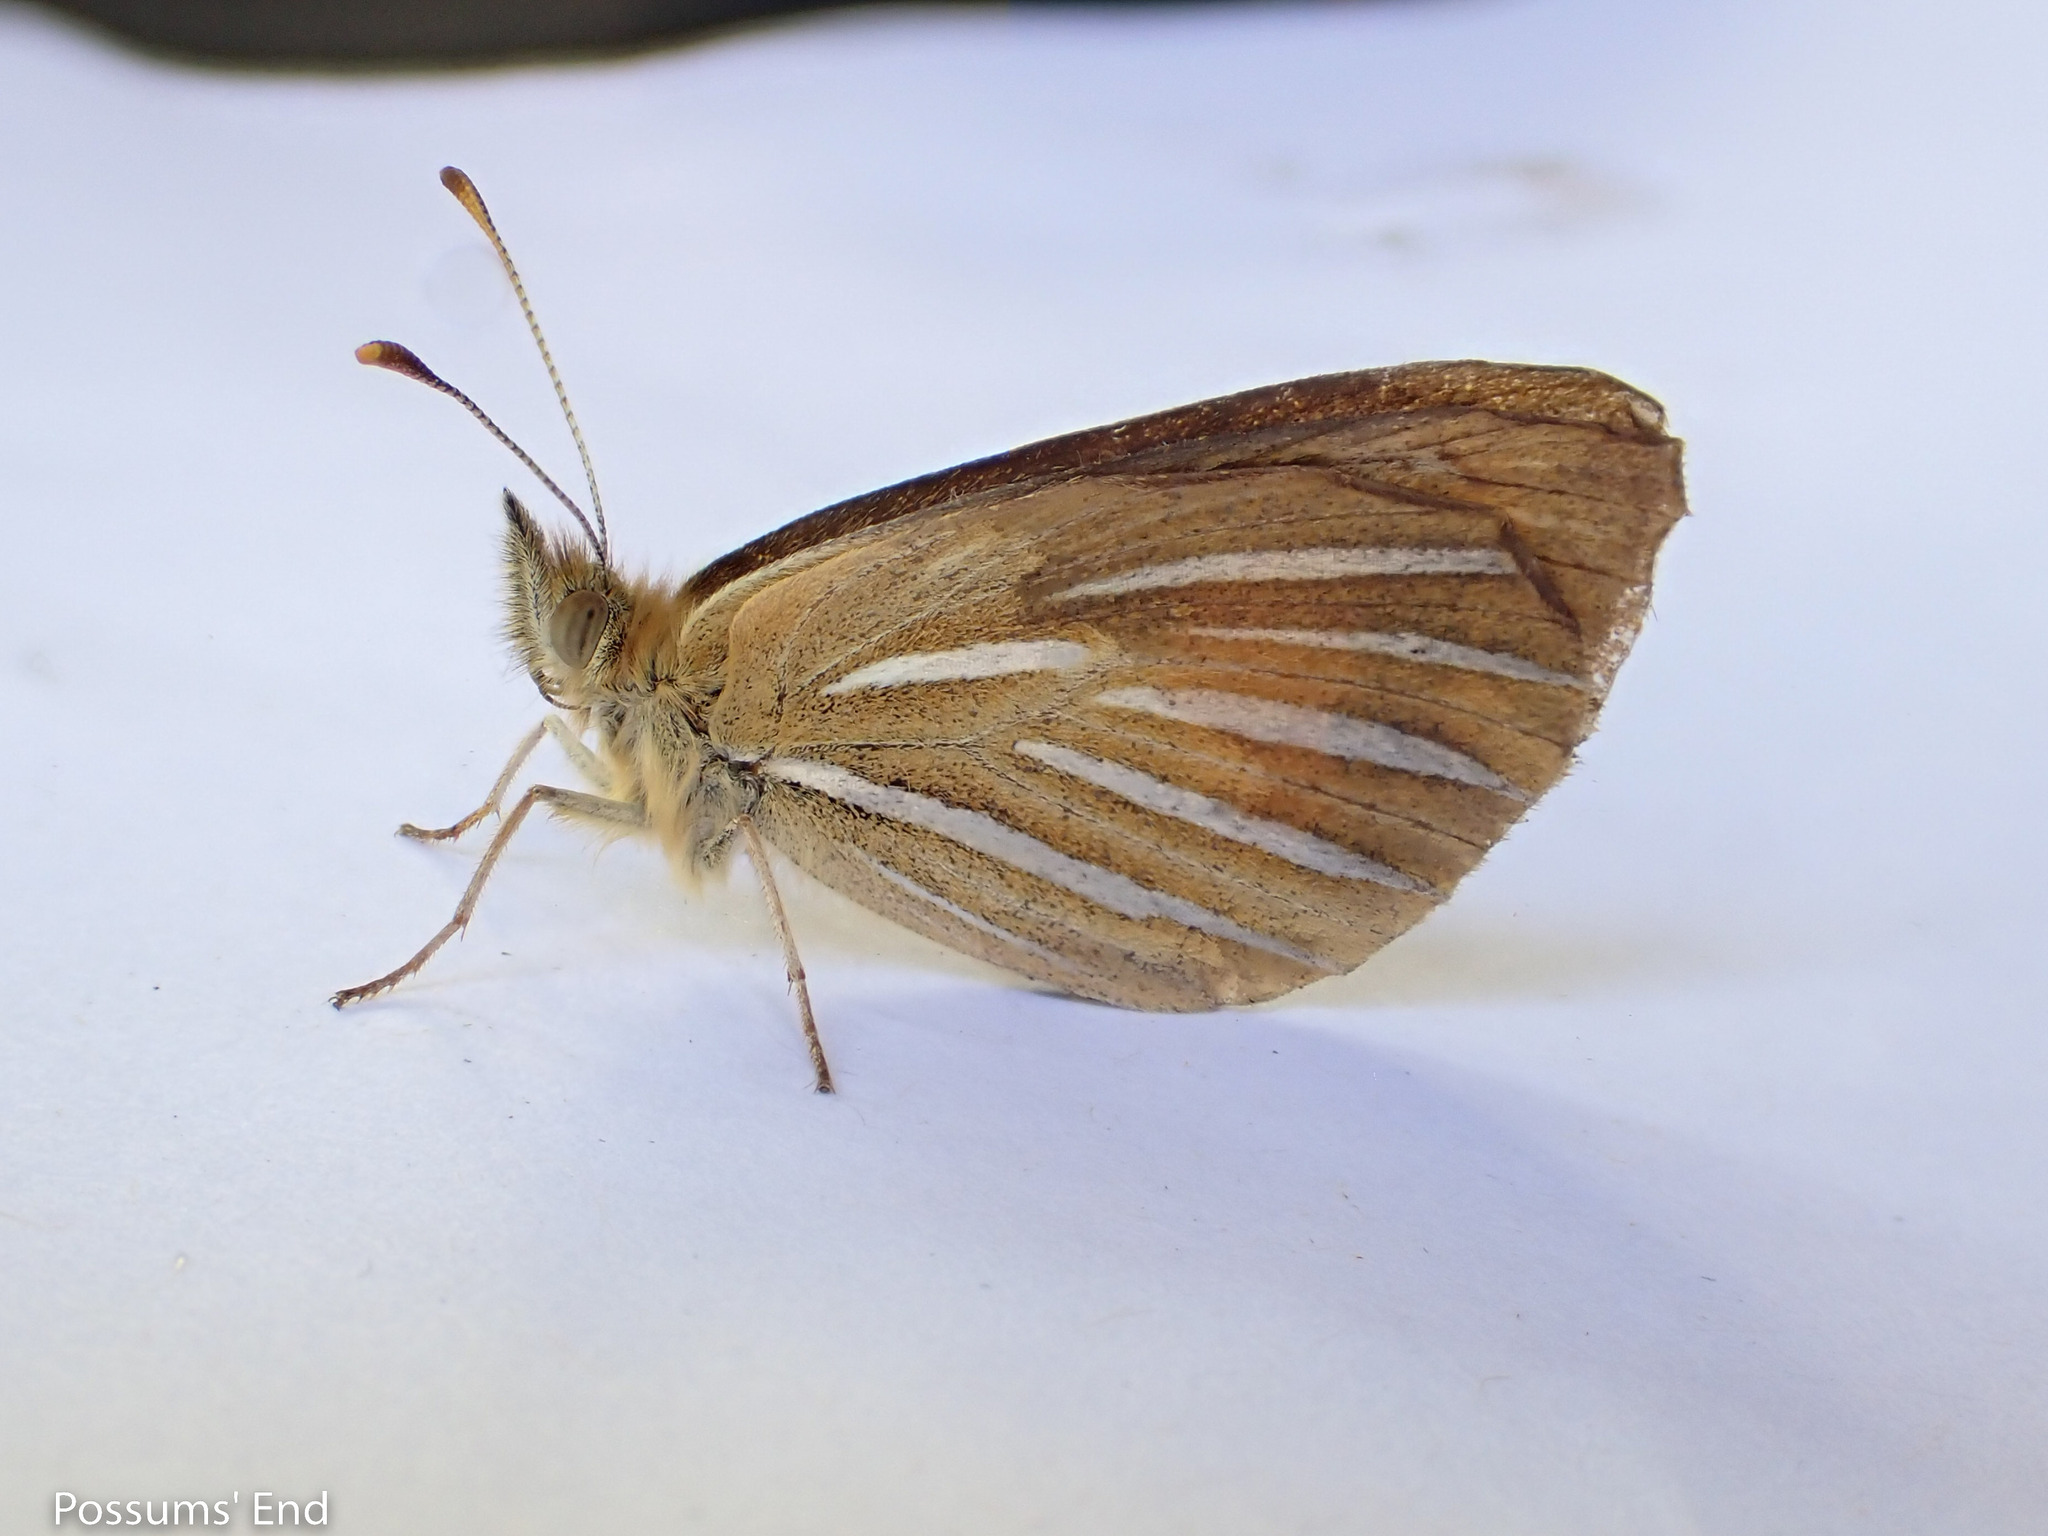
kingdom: Animalia
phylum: Arthropoda
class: Insecta
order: Lepidoptera
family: Nymphalidae
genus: Argyrophenga
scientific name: Argyrophenga janitae
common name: Janita's tussock
